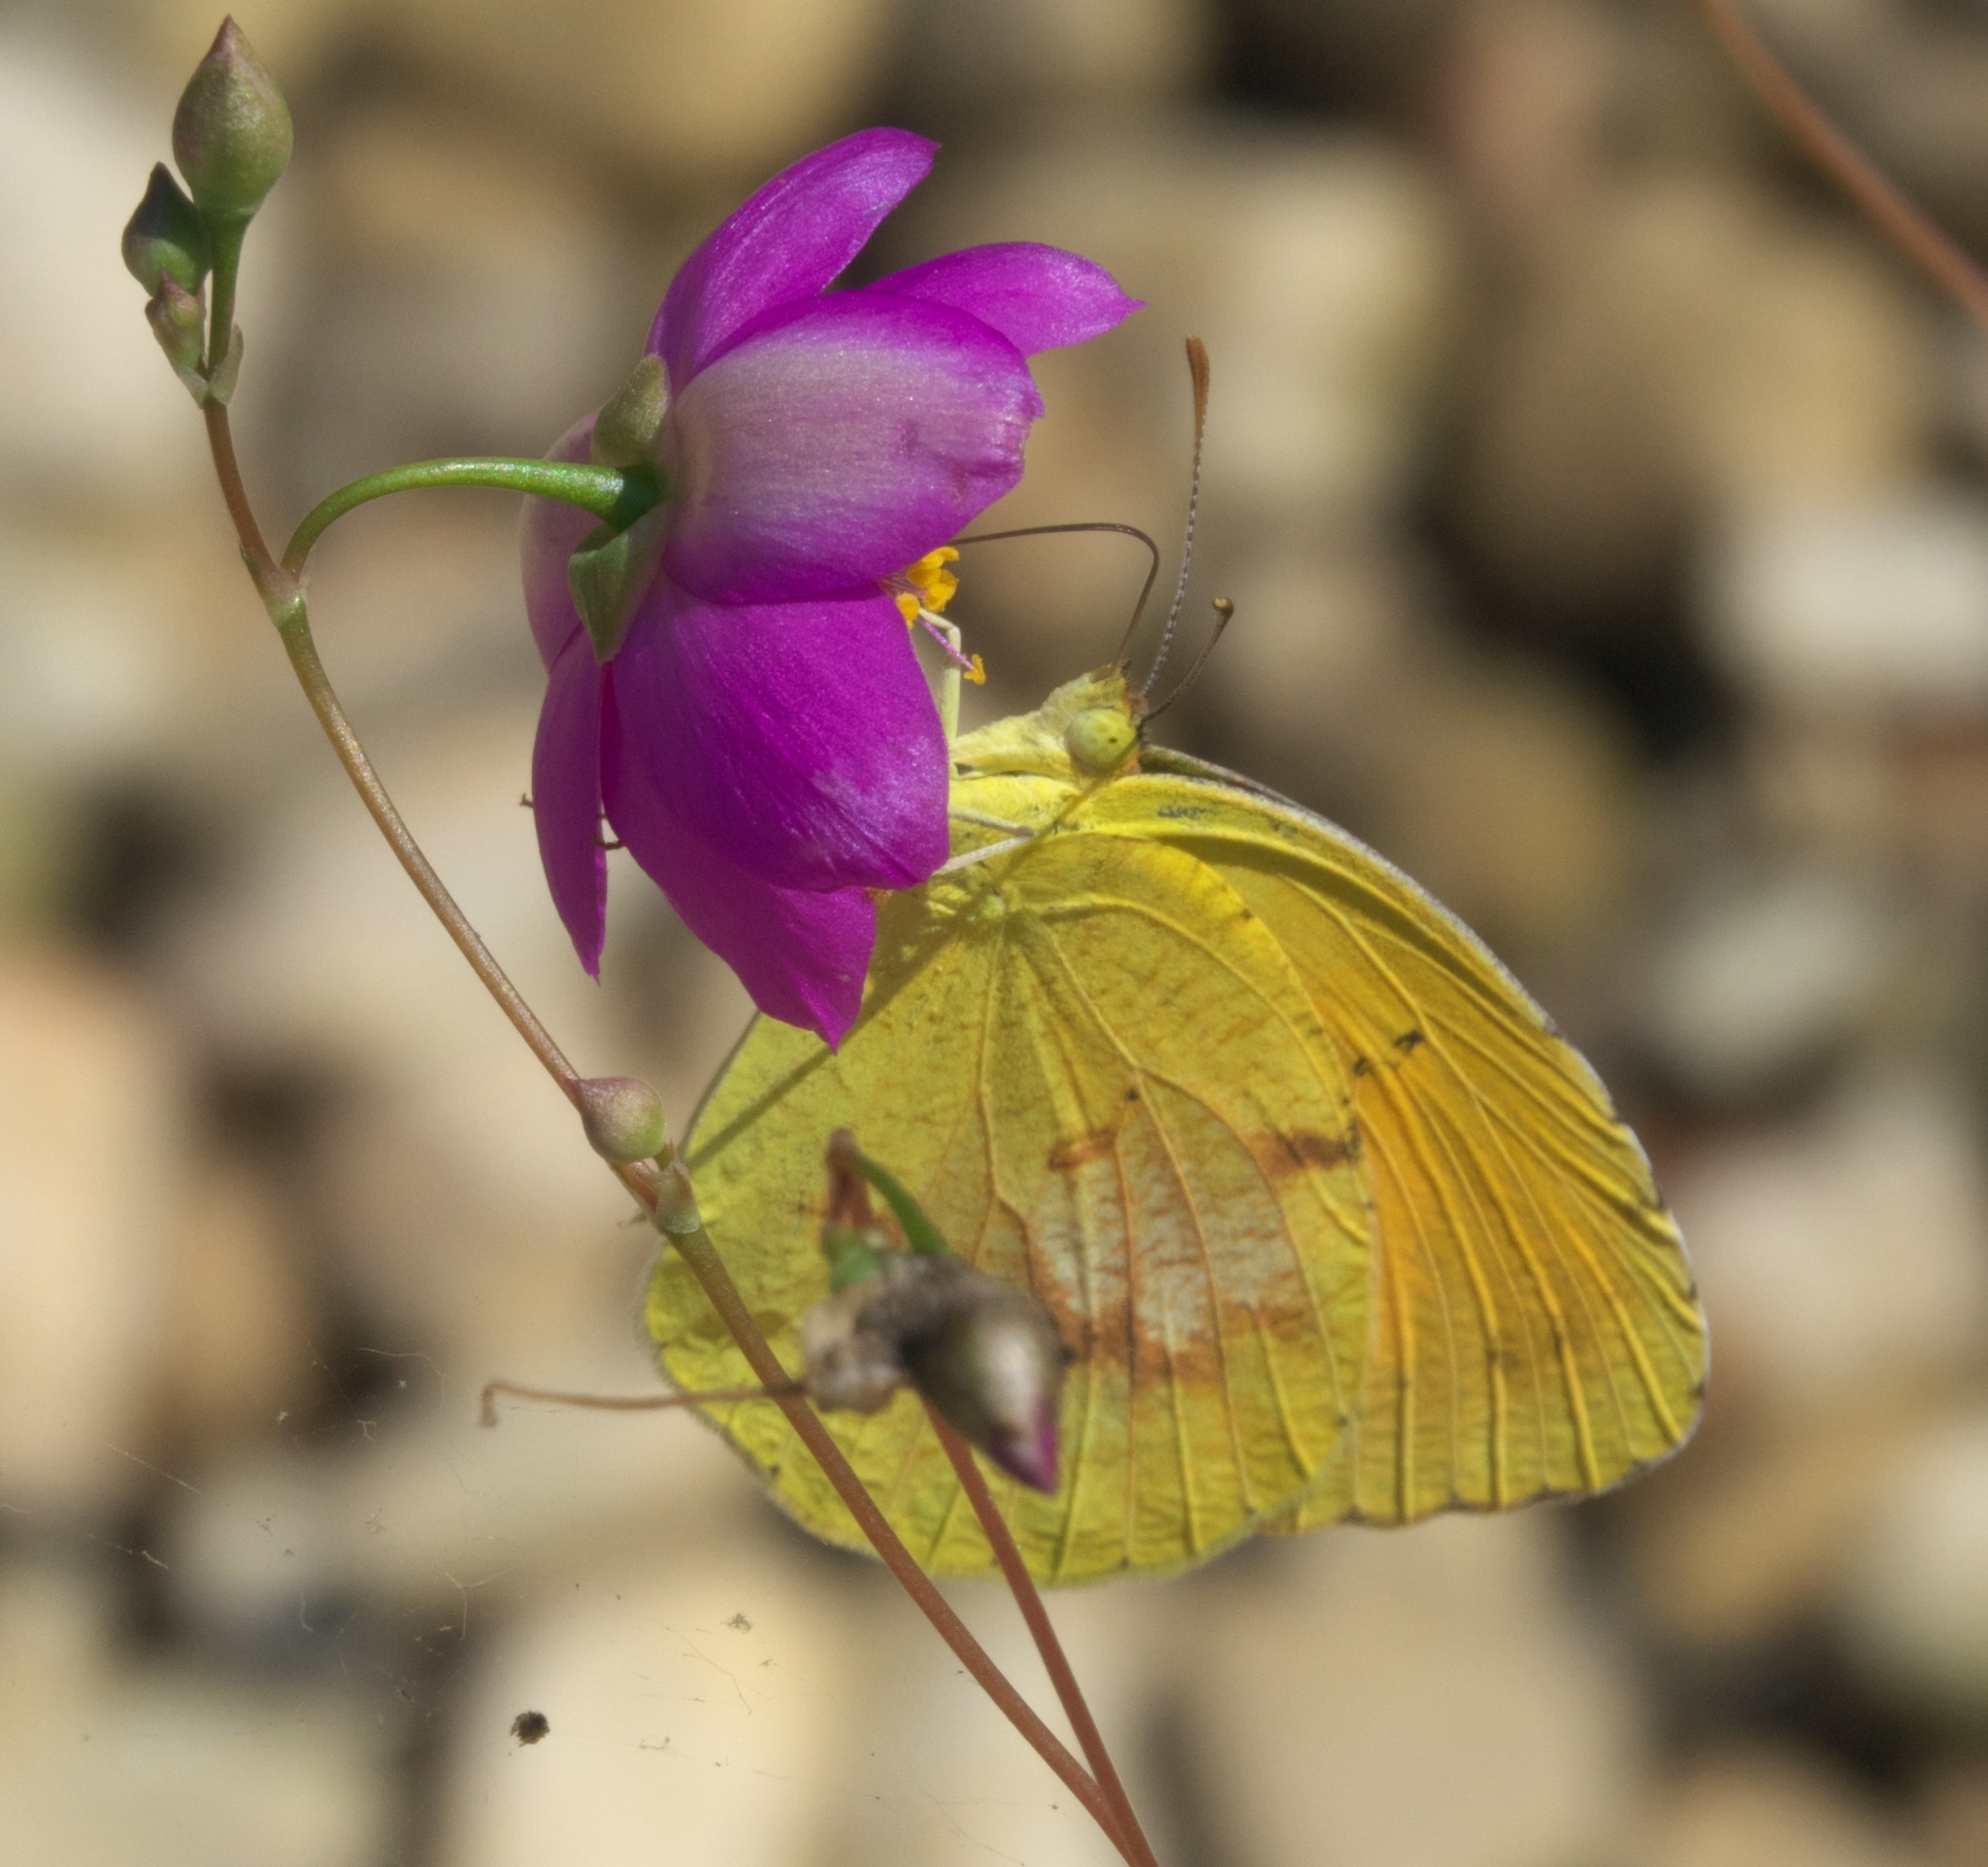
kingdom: Animalia
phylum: Arthropoda
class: Insecta
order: Lepidoptera
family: Pieridae
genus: Abaeis
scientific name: Abaeis nicippe
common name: Sleepy orange
